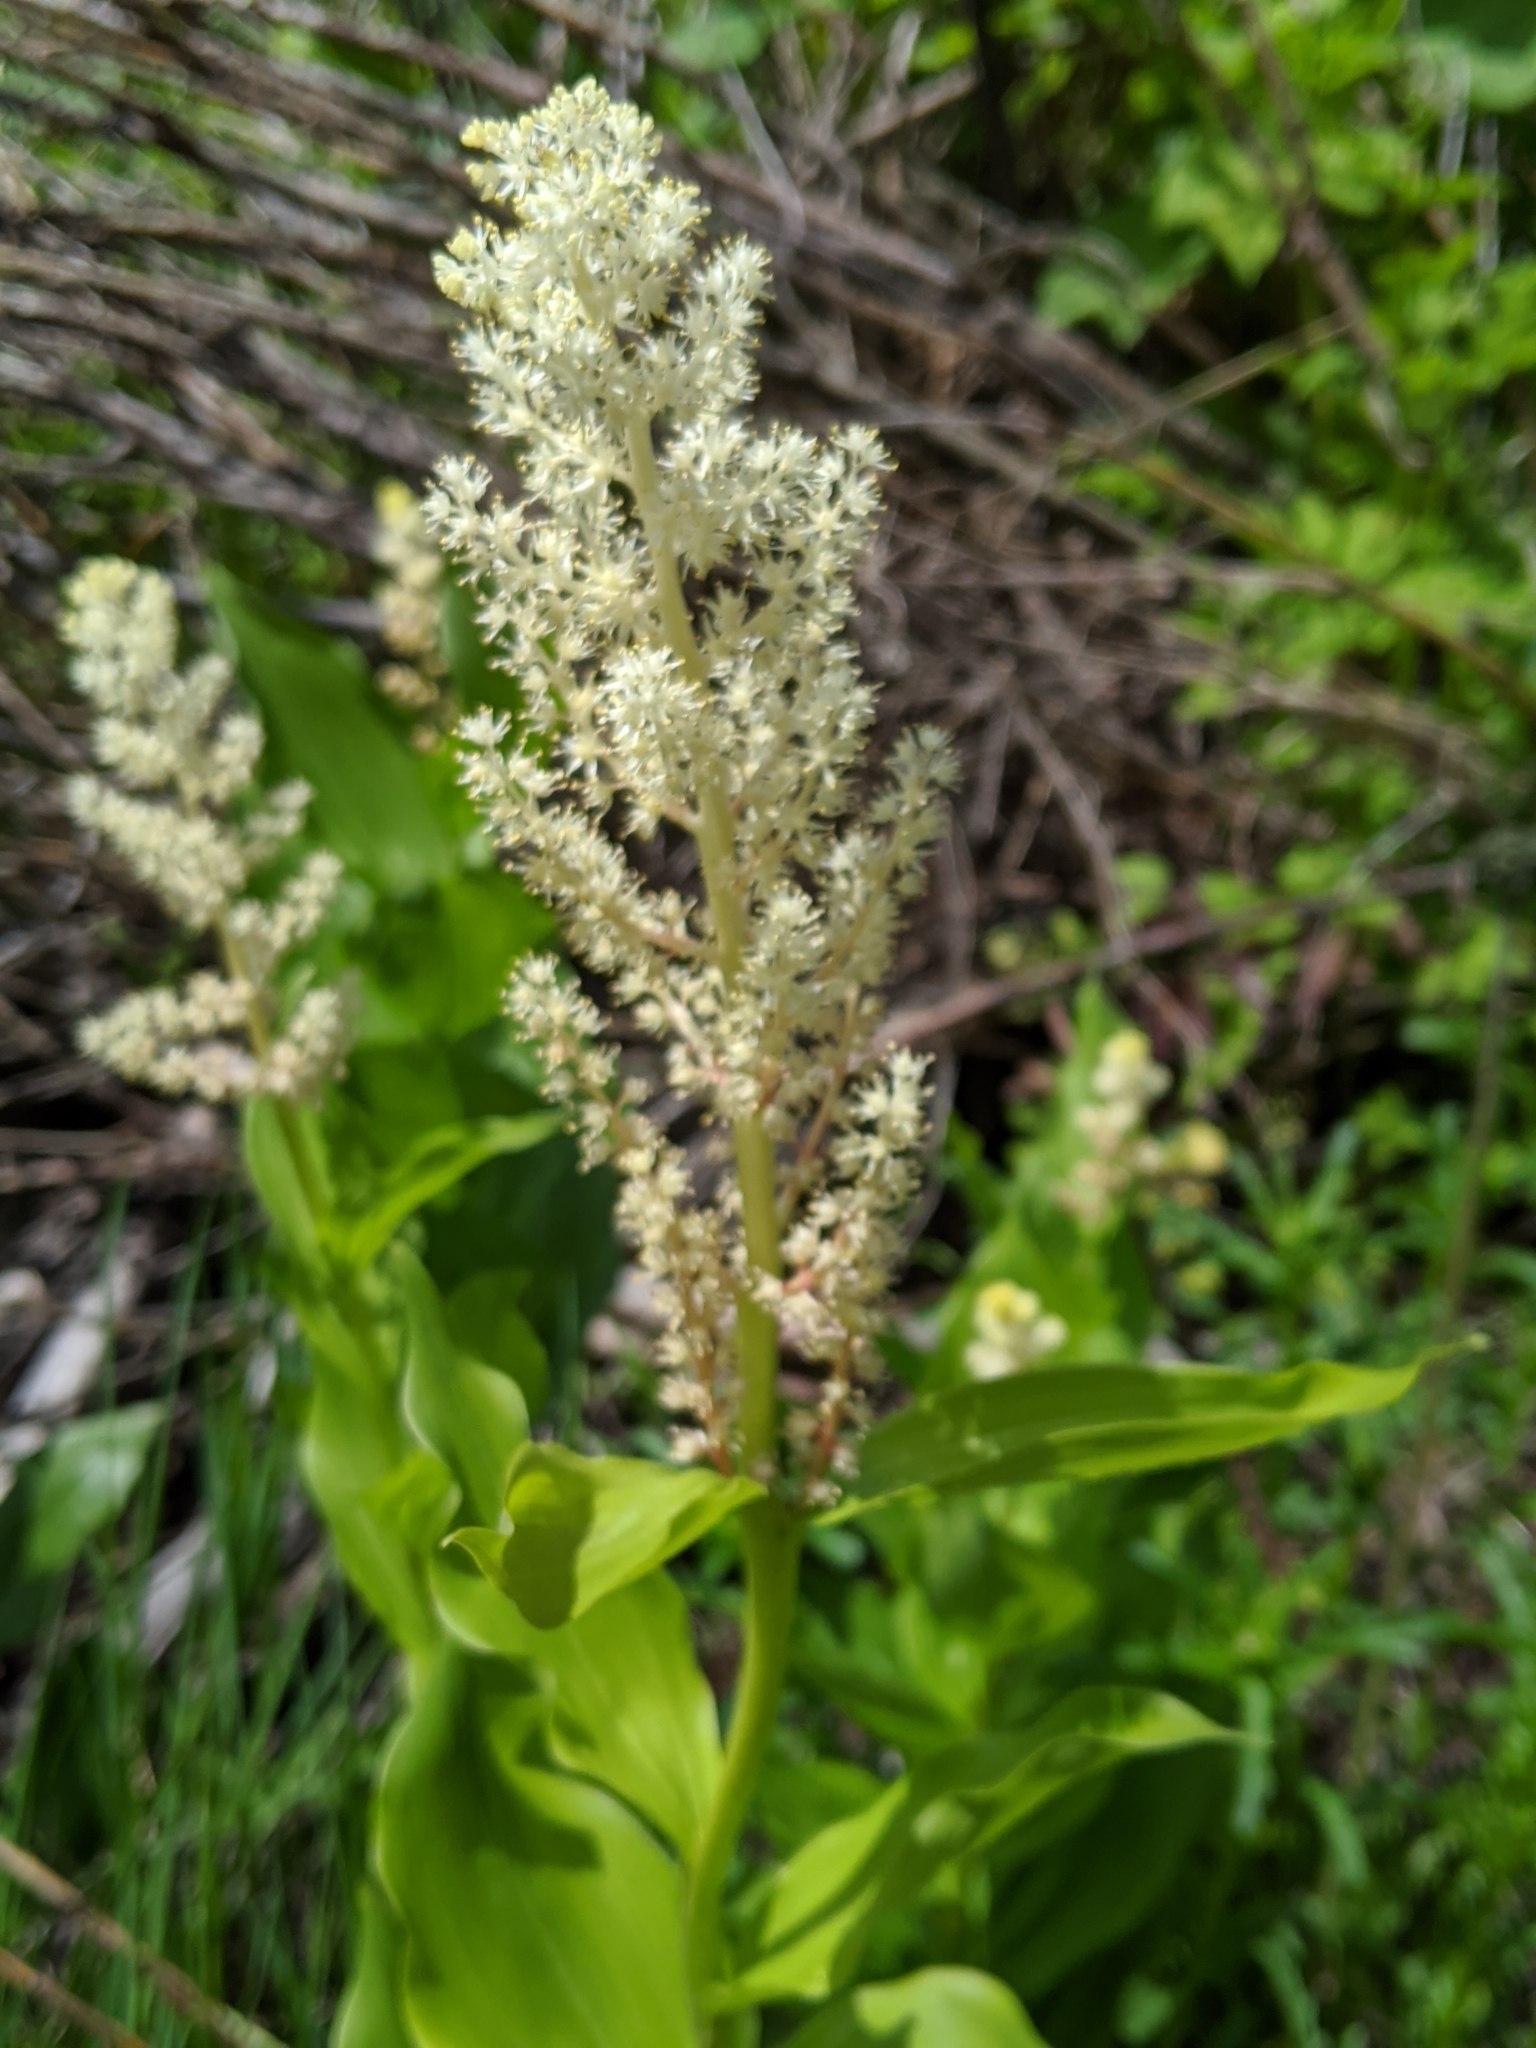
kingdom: Plantae
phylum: Tracheophyta
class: Liliopsida
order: Asparagales
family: Asparagaceae
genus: Maianthemum
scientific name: Maianthemum racemosum
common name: False spikenard
